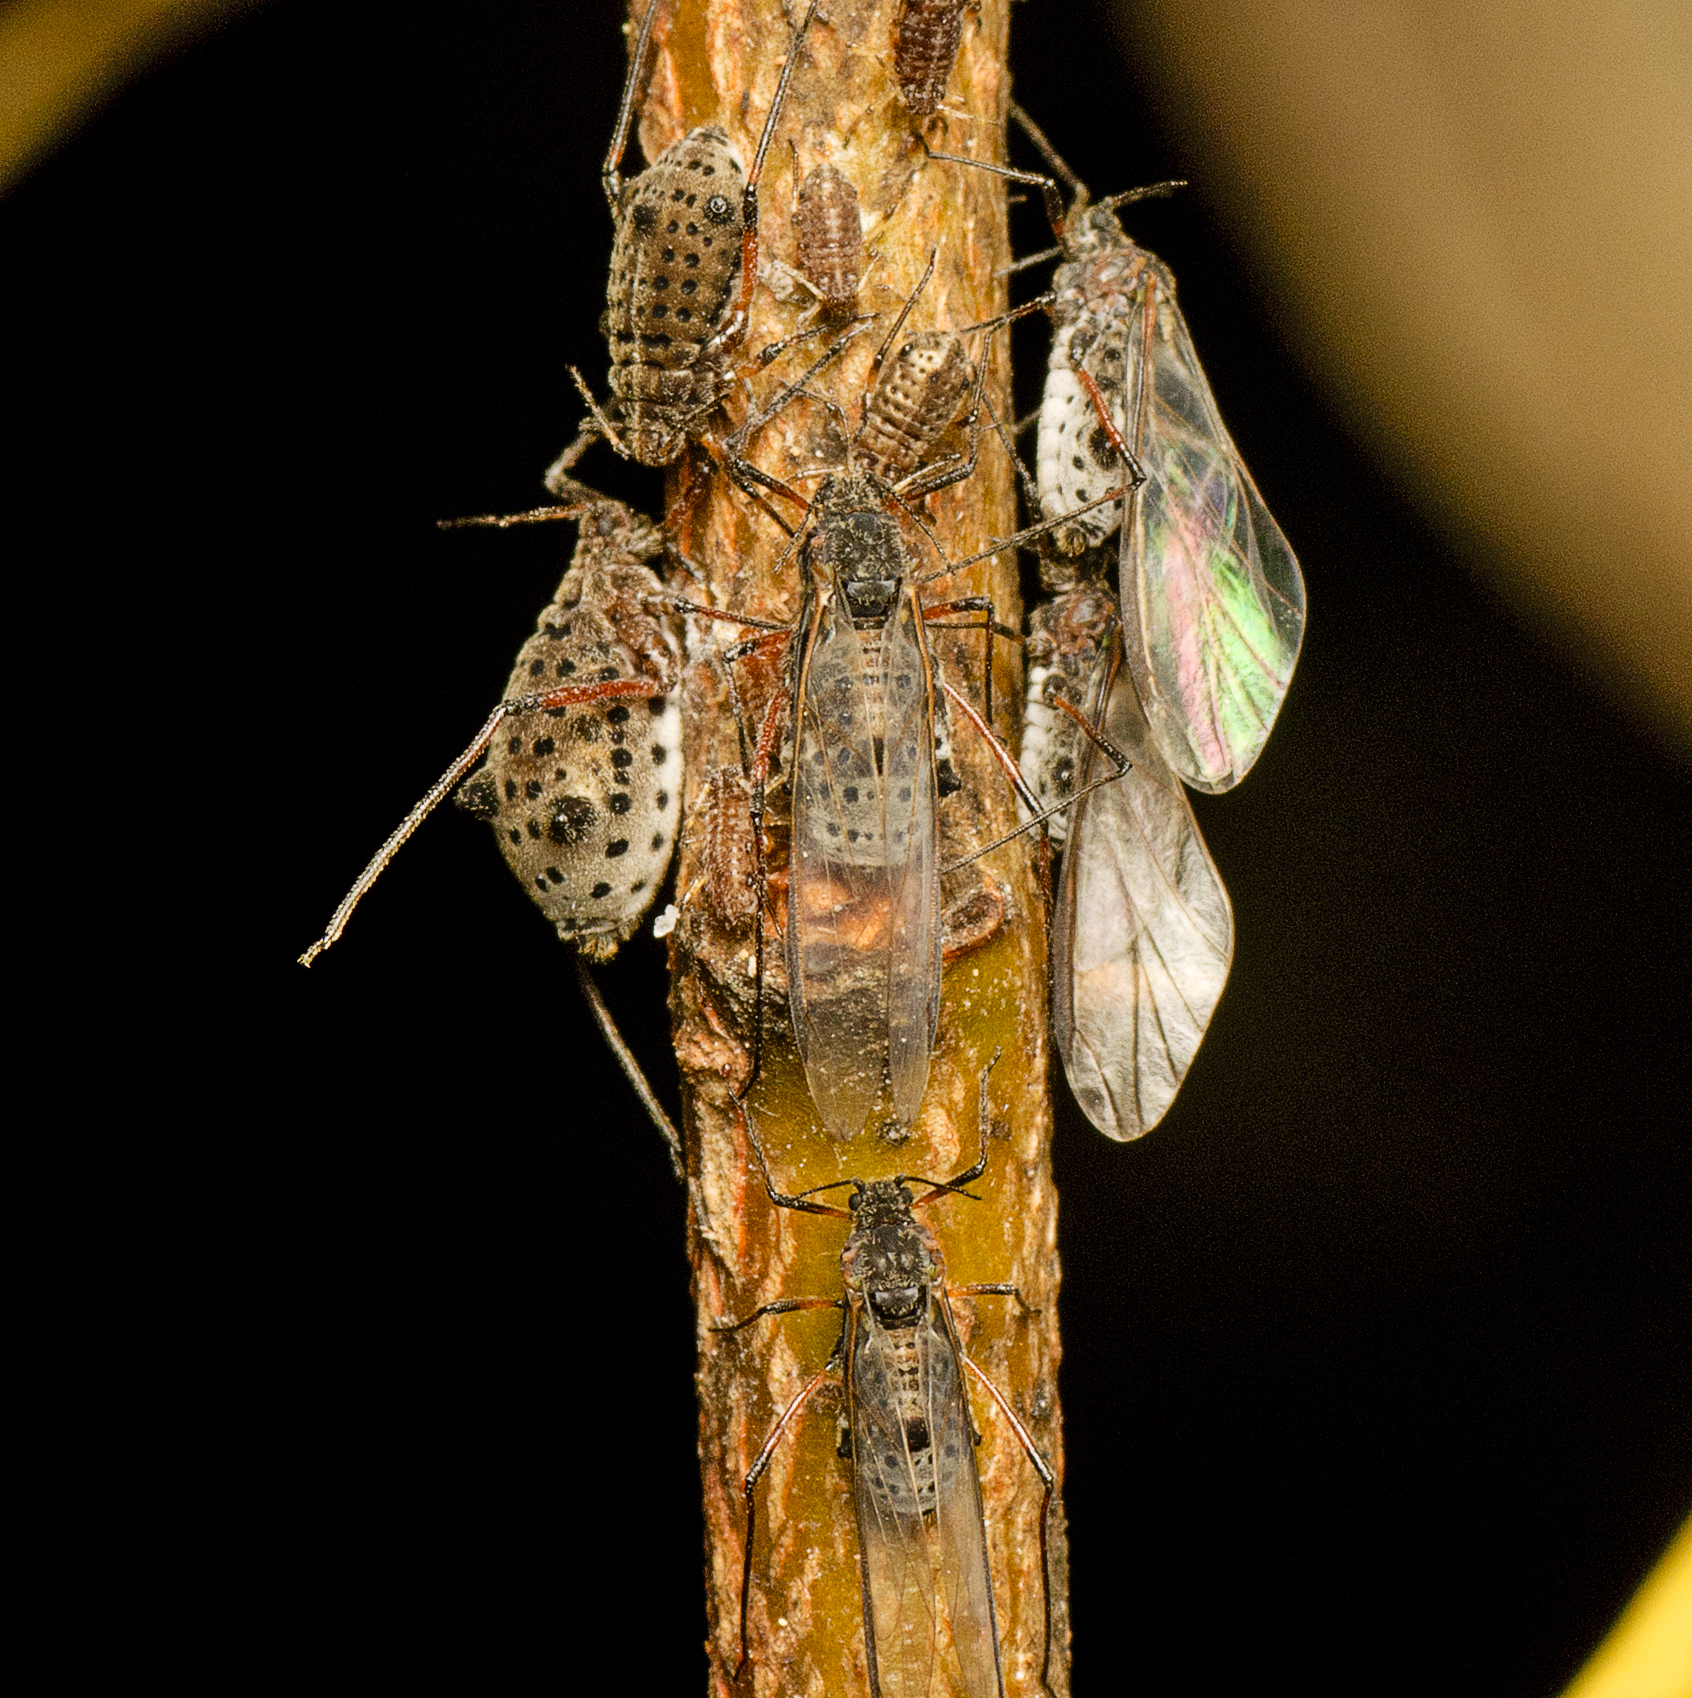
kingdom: Animalia
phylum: Arthropoda
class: Insecta
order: Hemiptera
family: Aphididae
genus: Tuberolachnus
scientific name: Tuberolachnus salignus
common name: Giant willow aphid
